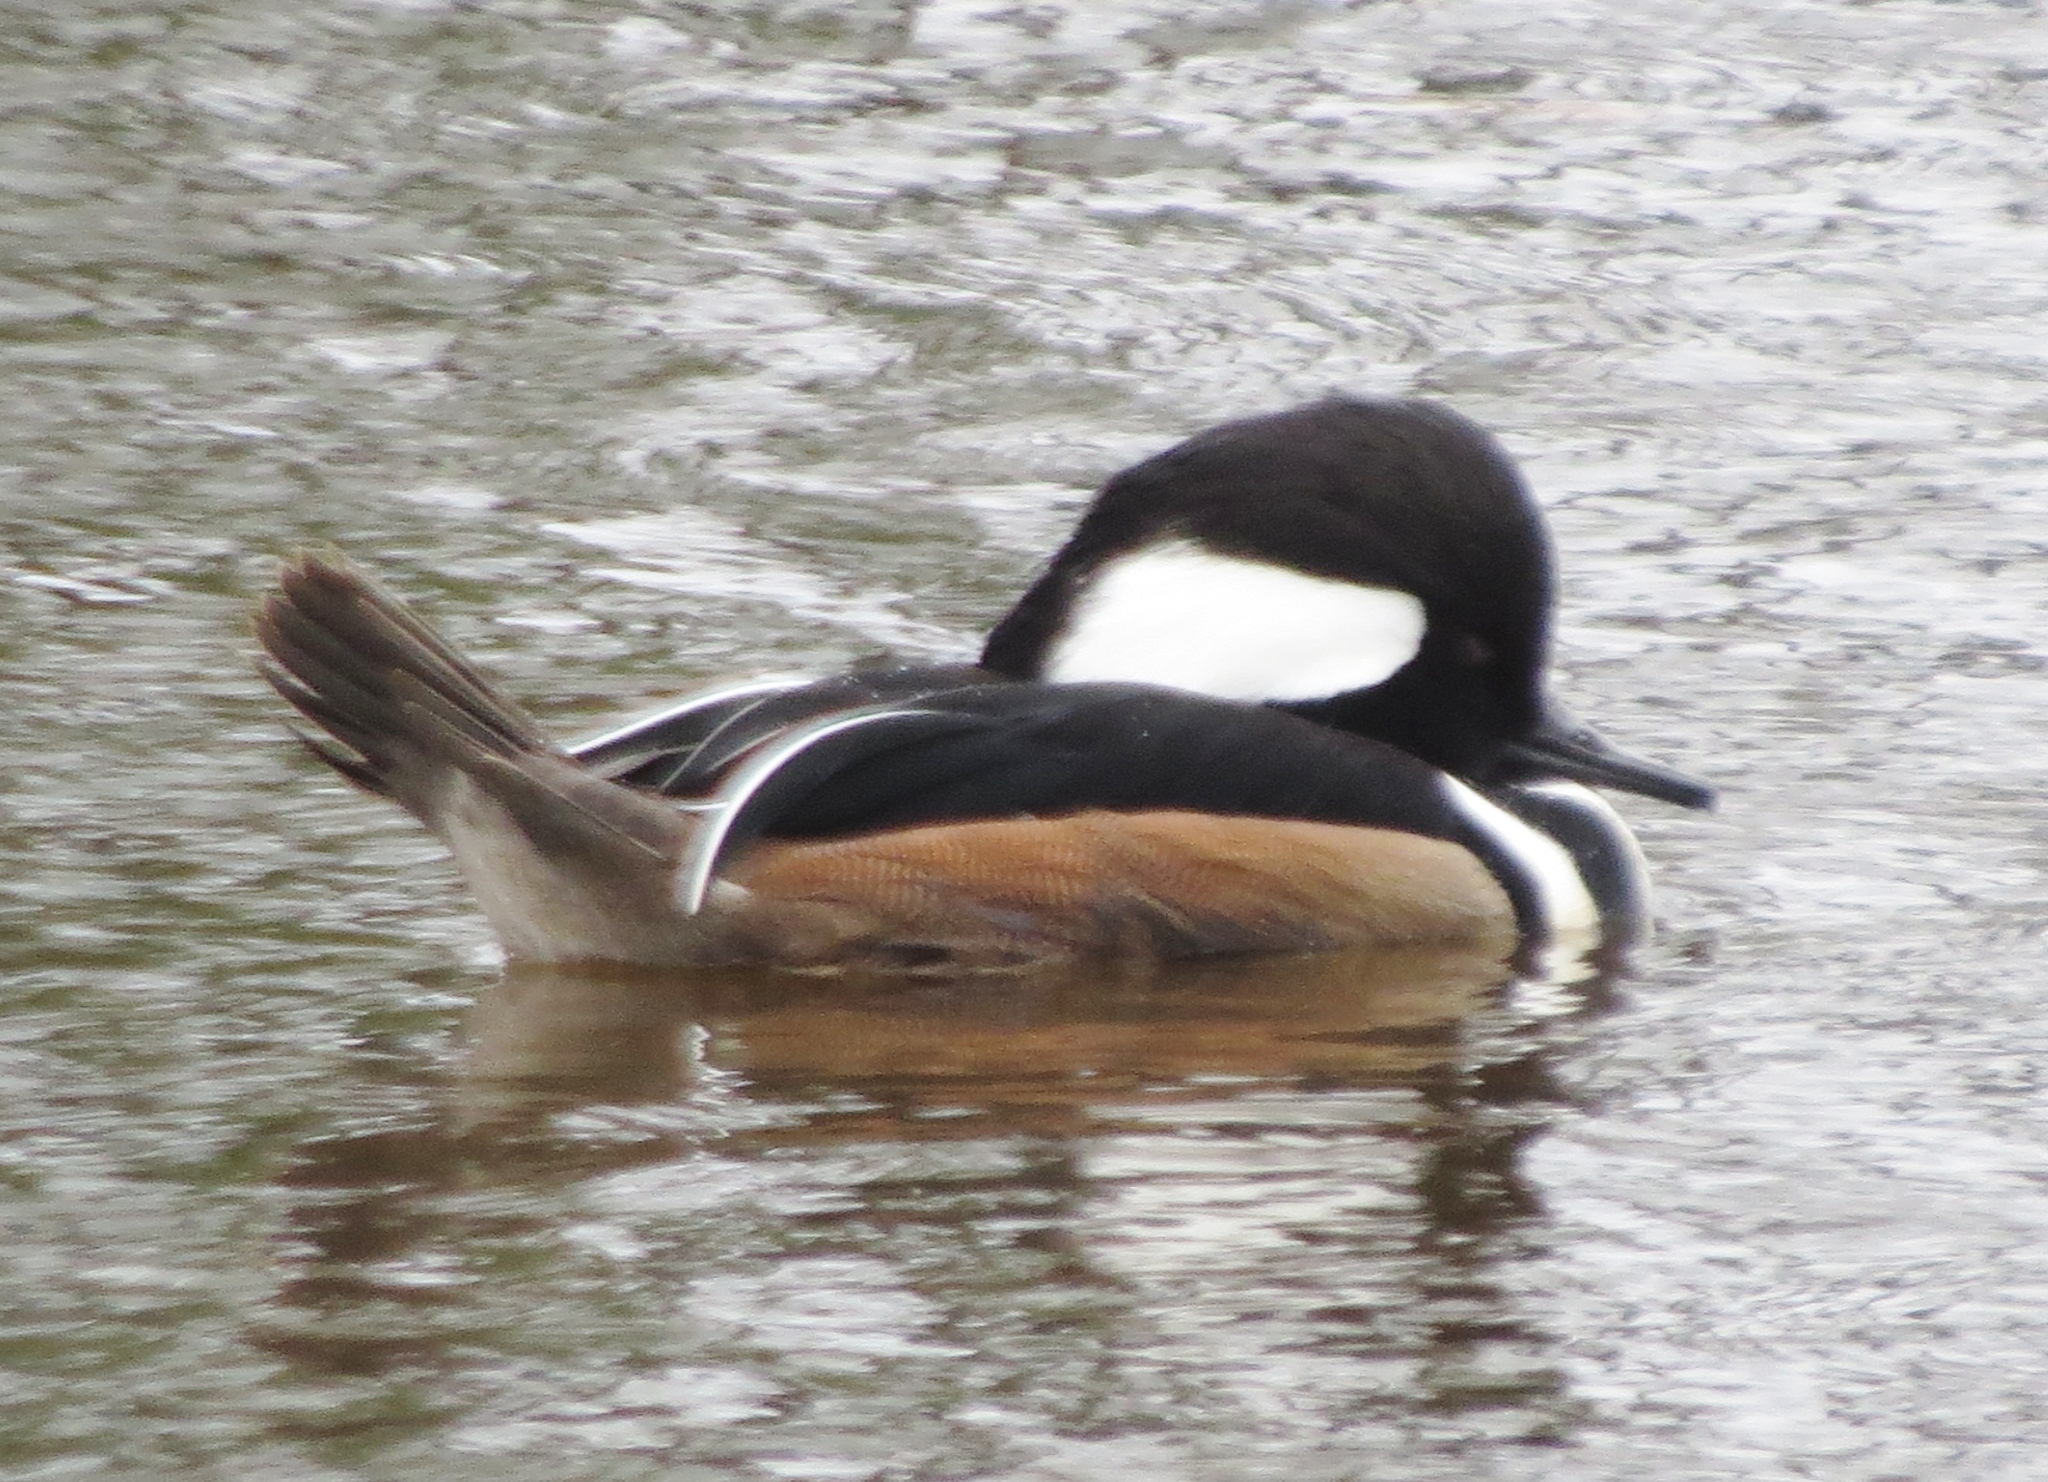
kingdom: Animalia
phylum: Chordata
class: Aves
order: Anseriformes
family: Anatidae
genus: Lophodytes
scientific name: Lophodytes cucullatus
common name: Hooded merganser
